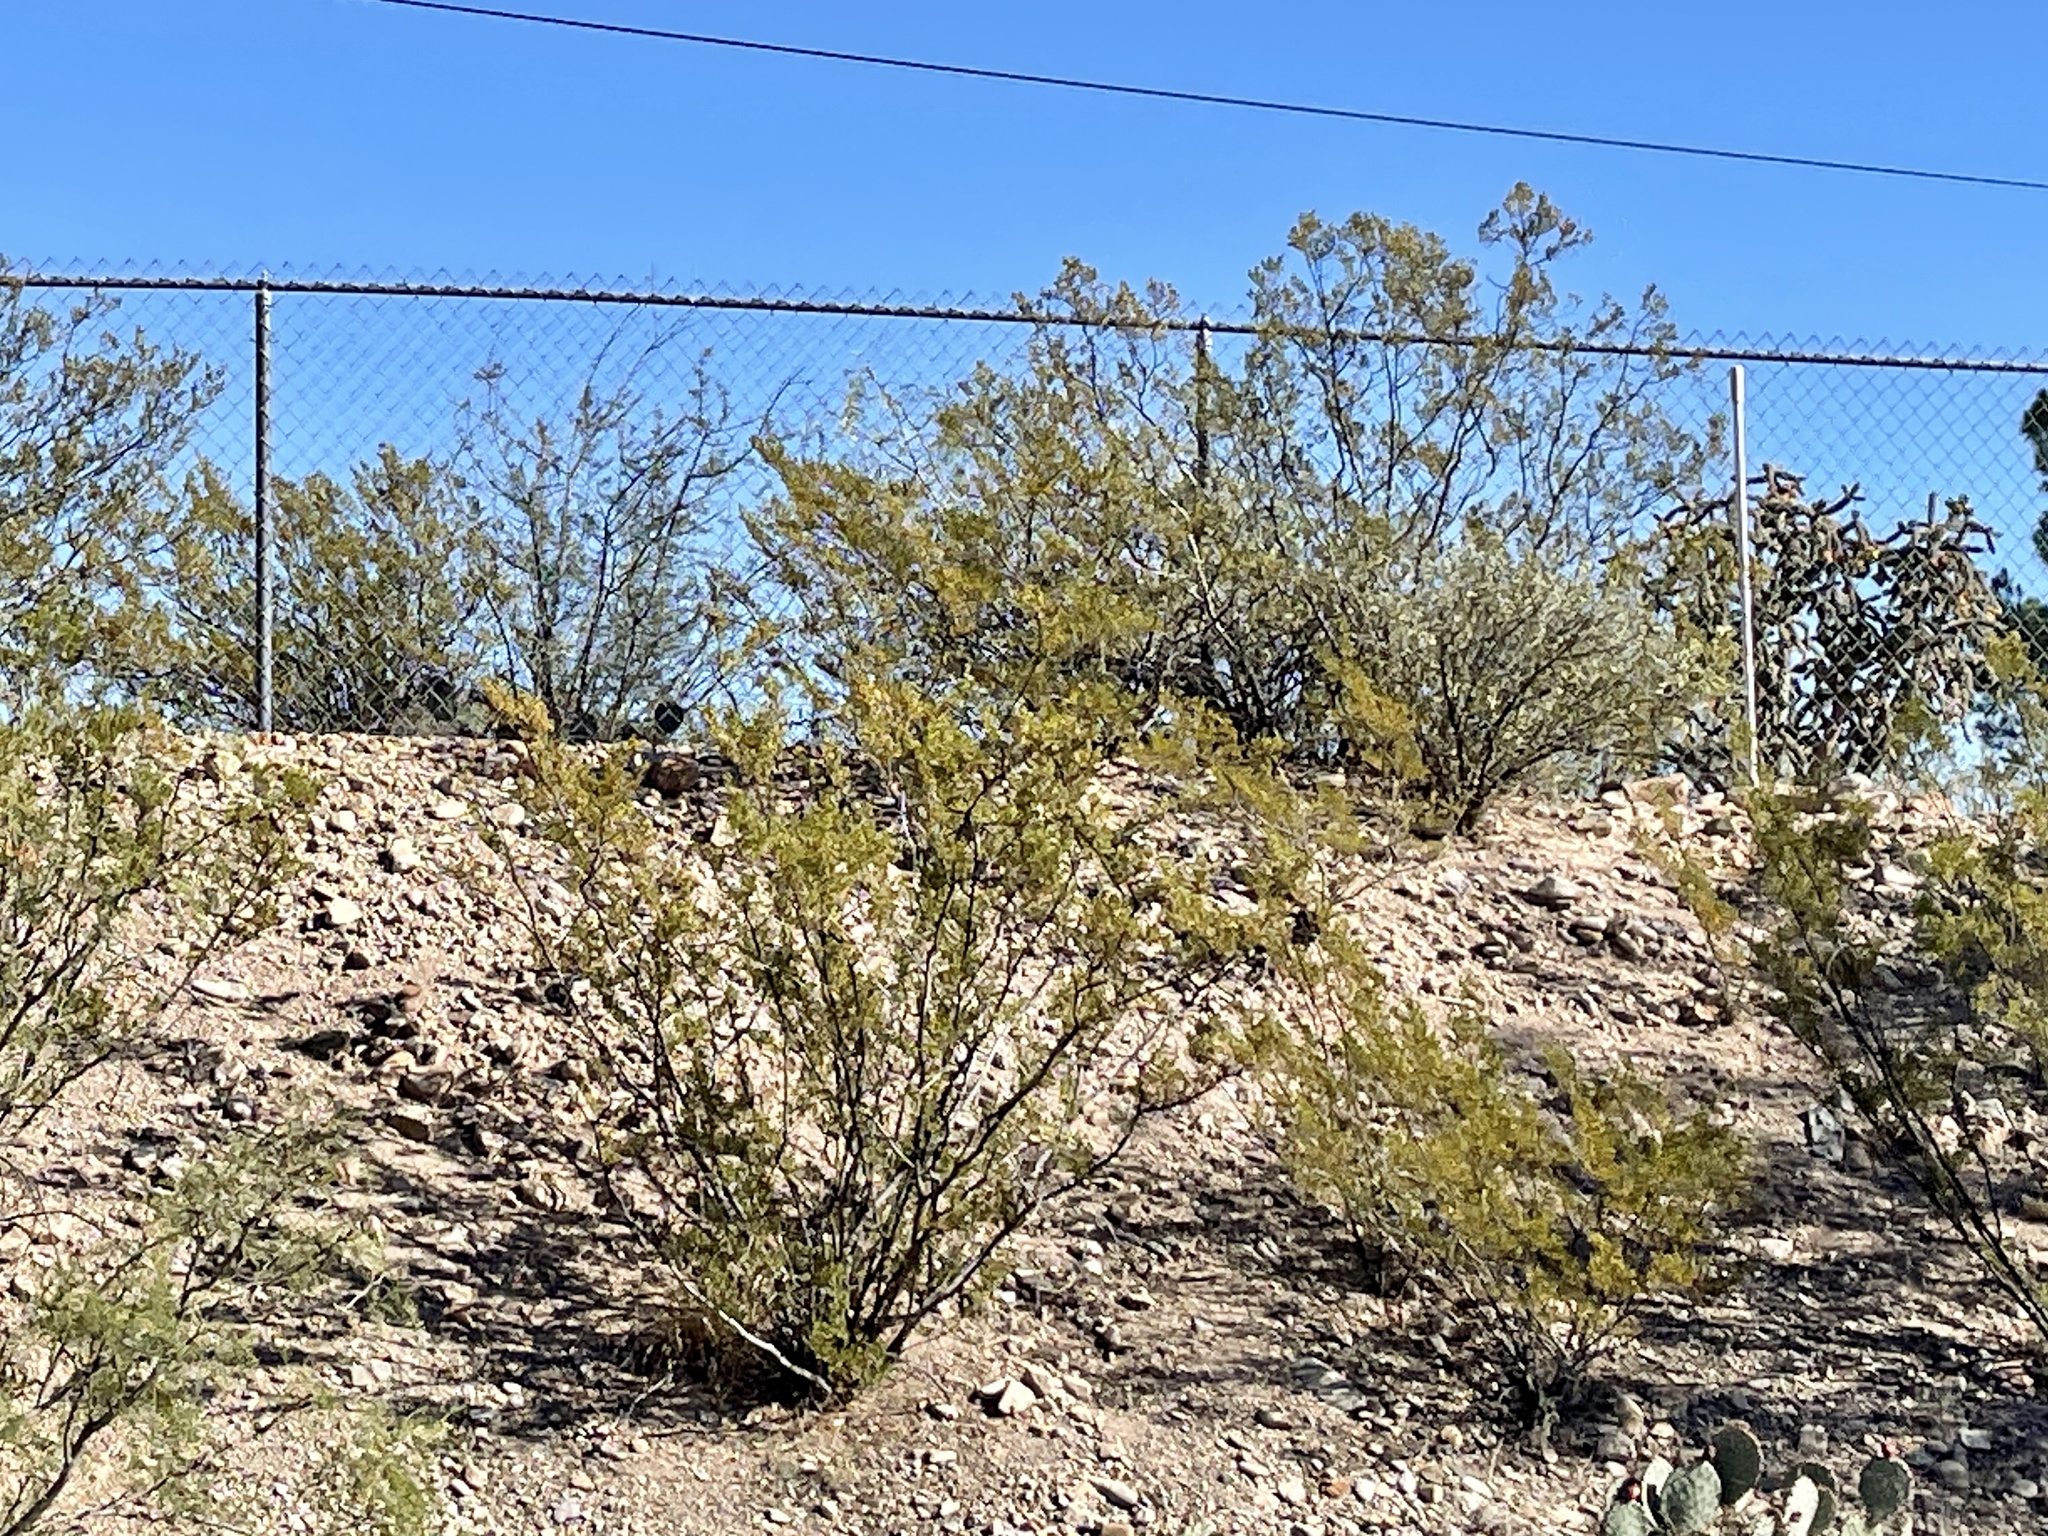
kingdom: Plantae
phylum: Tracheophyta
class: Magnoliopsida
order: Zygophyllales
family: Zygophyllaceae
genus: Larrea
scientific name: Larrea tridentata
